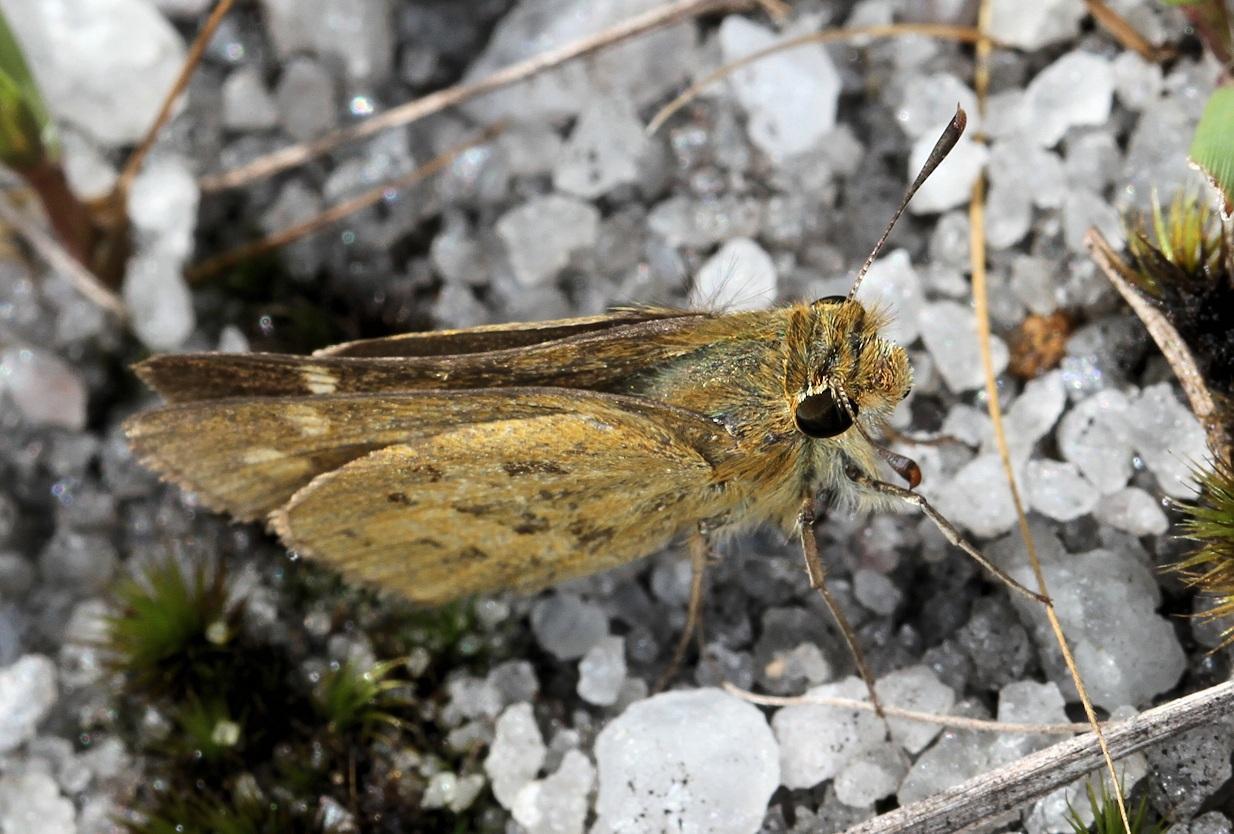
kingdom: Animalia
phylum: Arthropoda
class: Insecta
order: Lepidoptera
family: Hesperiidae
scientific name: Hesperiidae
